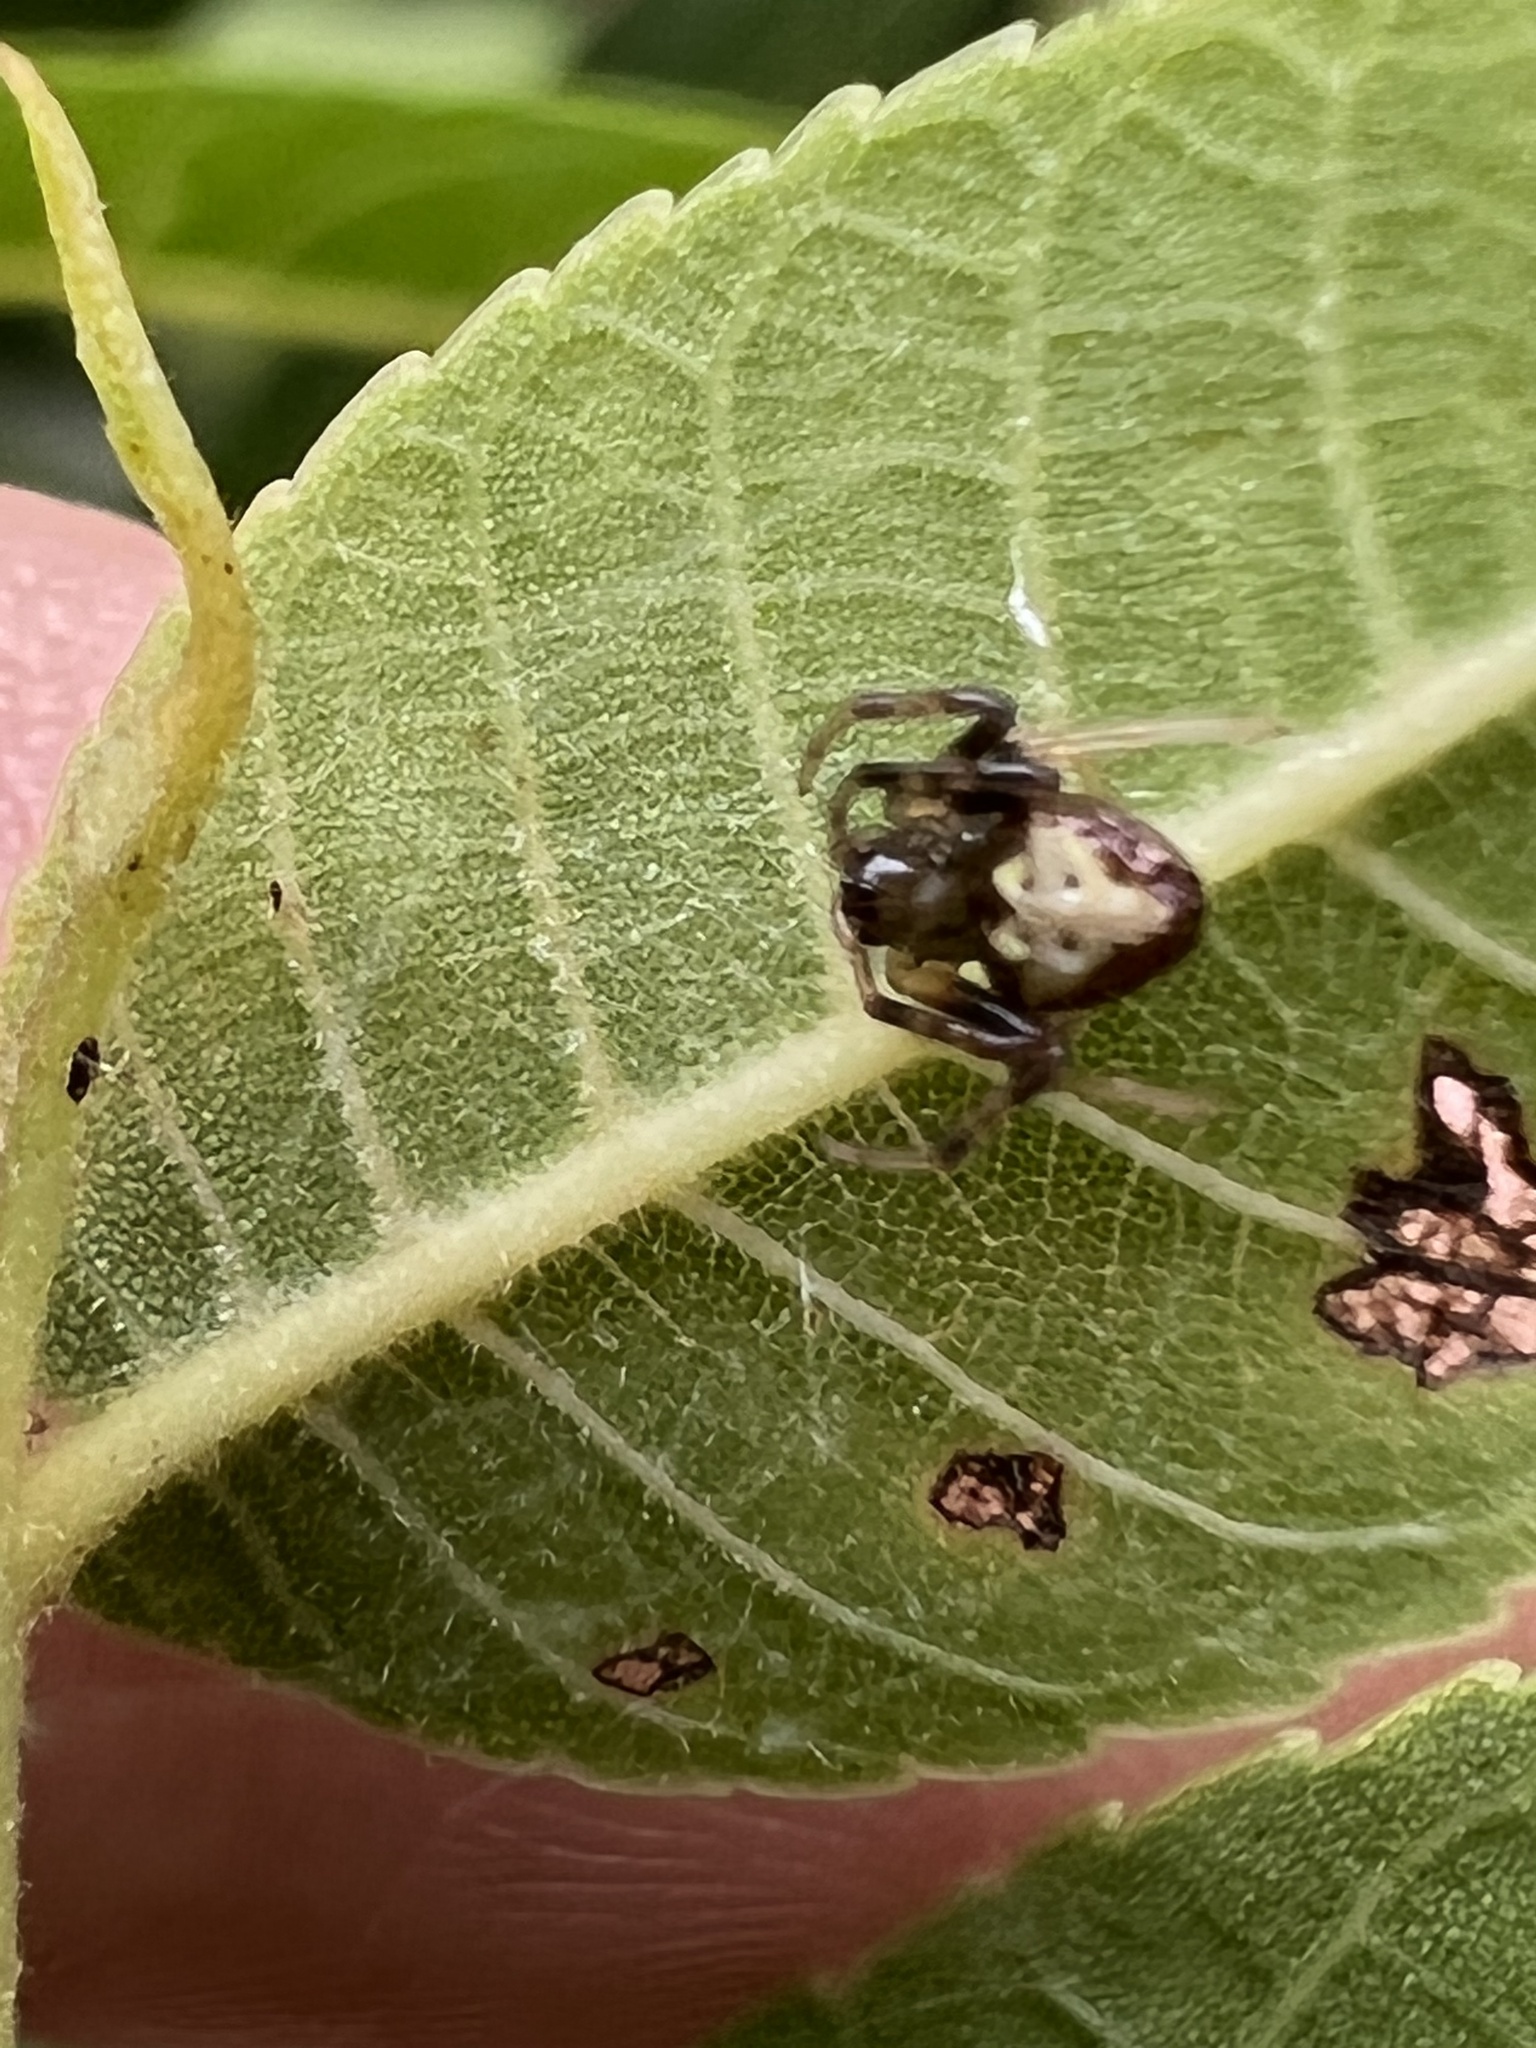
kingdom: Animalia
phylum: Arthropoda
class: Arachnida
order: Araneae
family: Araneidae
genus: Verrucosa
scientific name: Verrucosa arenata
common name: Orb weavers
